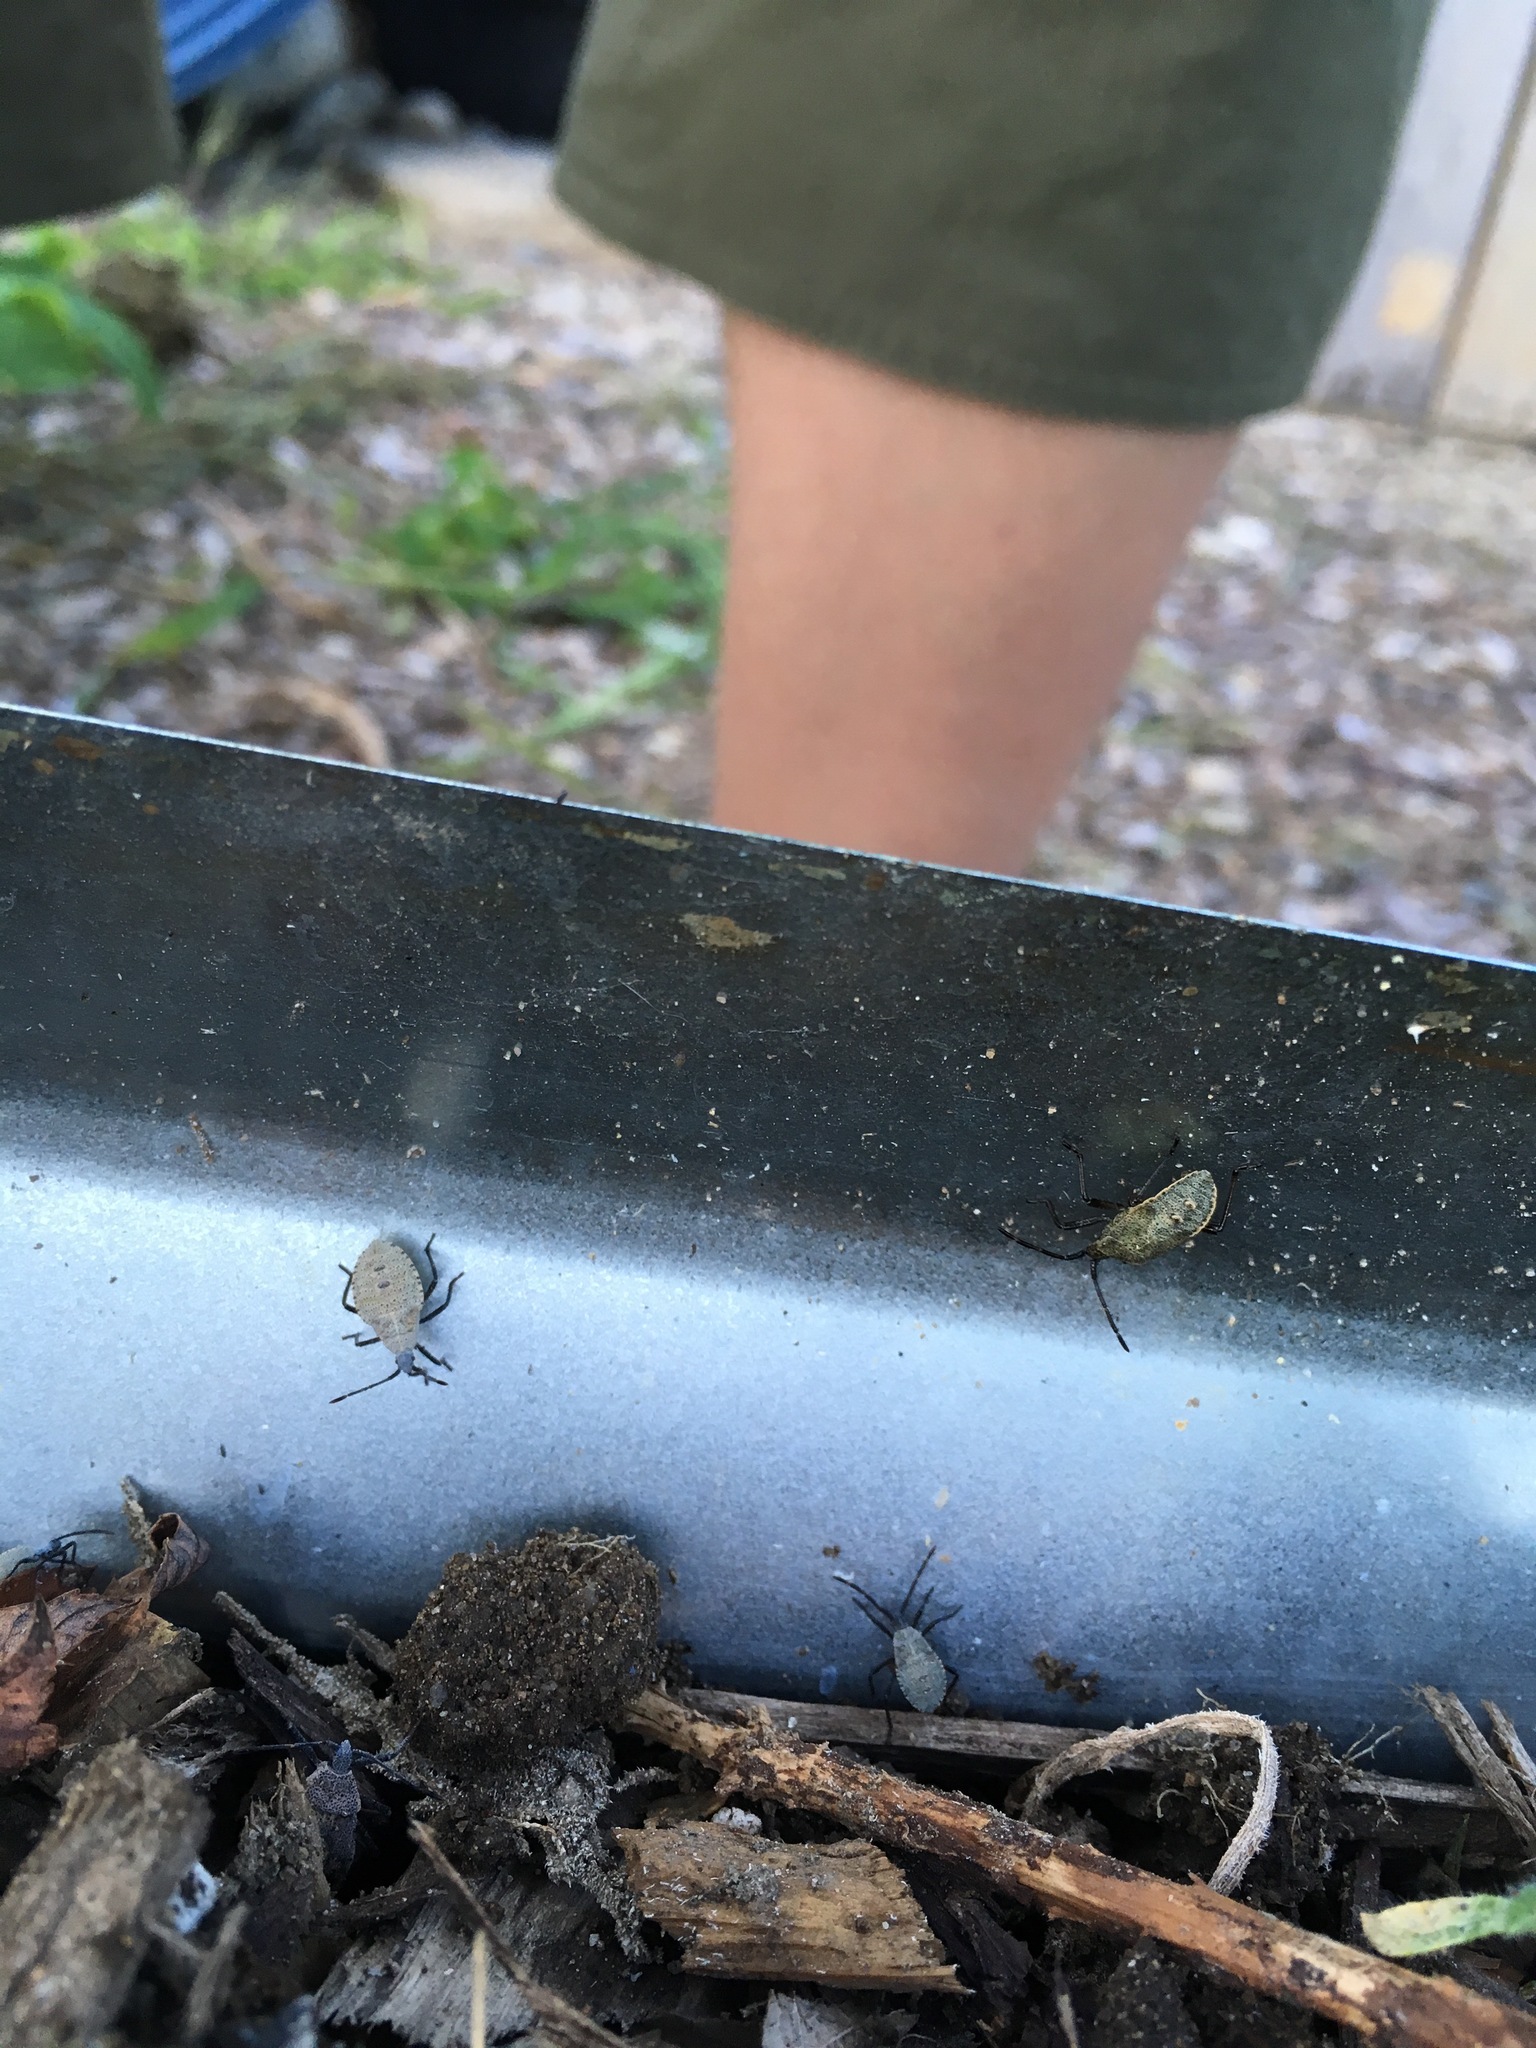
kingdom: Animalia
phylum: Arthropoda
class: Insecta
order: Hemiptera
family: Coreidae
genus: Anasa
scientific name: Anasa tristis
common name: Squash bug
